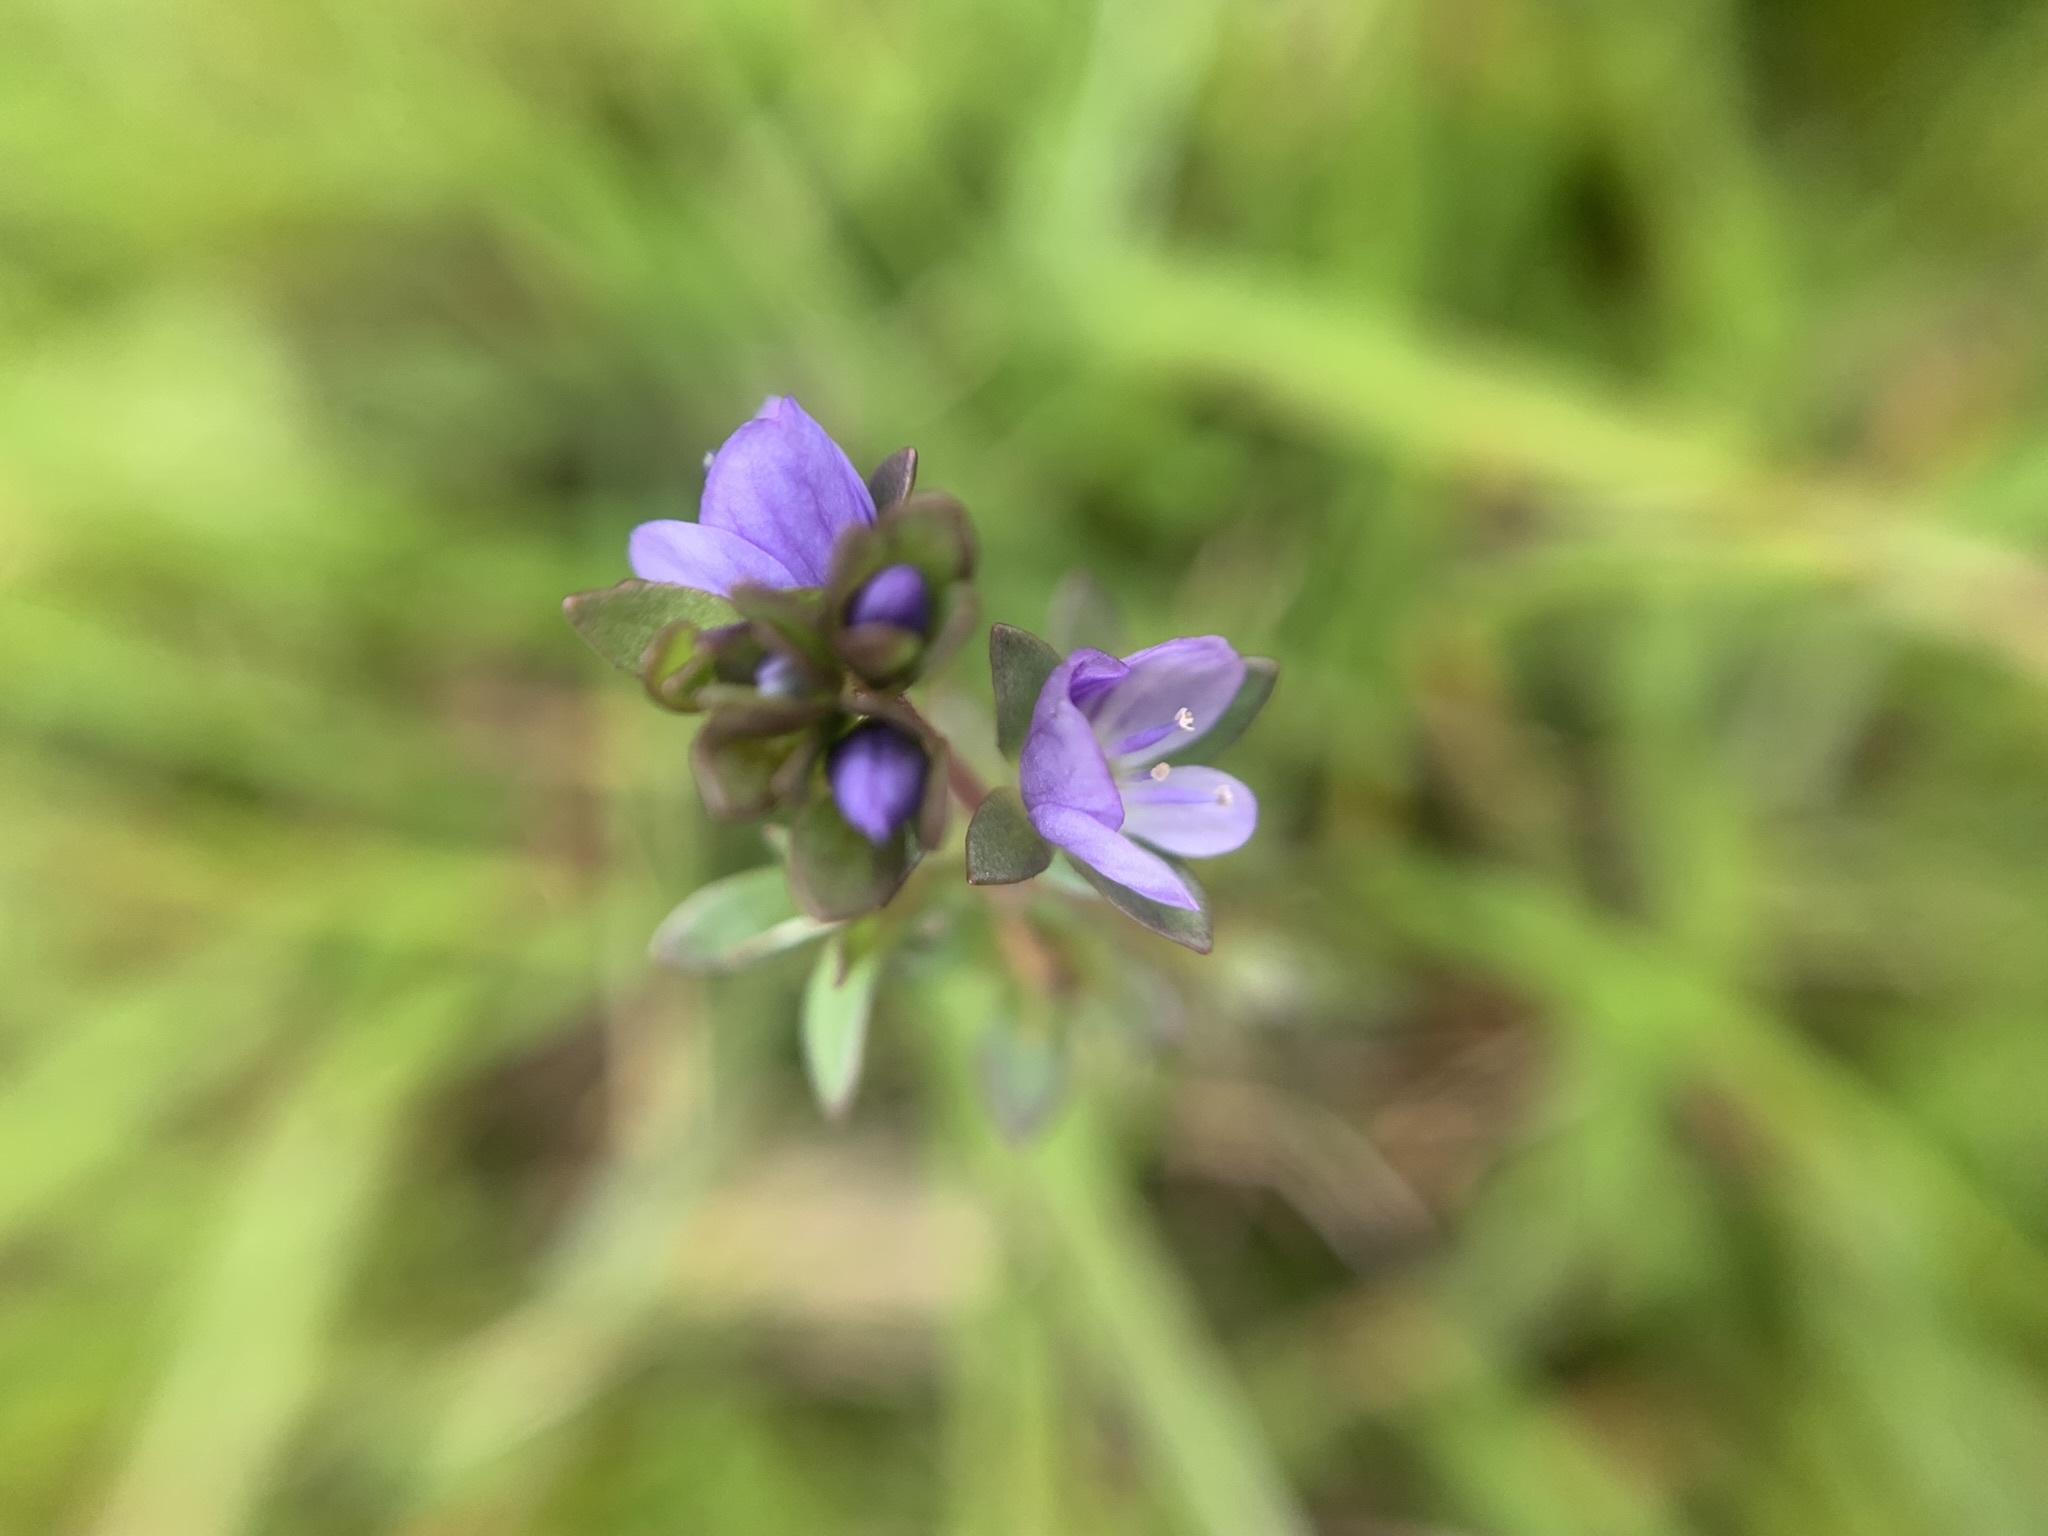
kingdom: Plantae
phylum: Tracheophyta
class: Magnoliopsida
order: Lamiales
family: Plantaginaceae
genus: Veronica
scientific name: Veronica serpyllifolia
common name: Thyme-leaved speedwell
